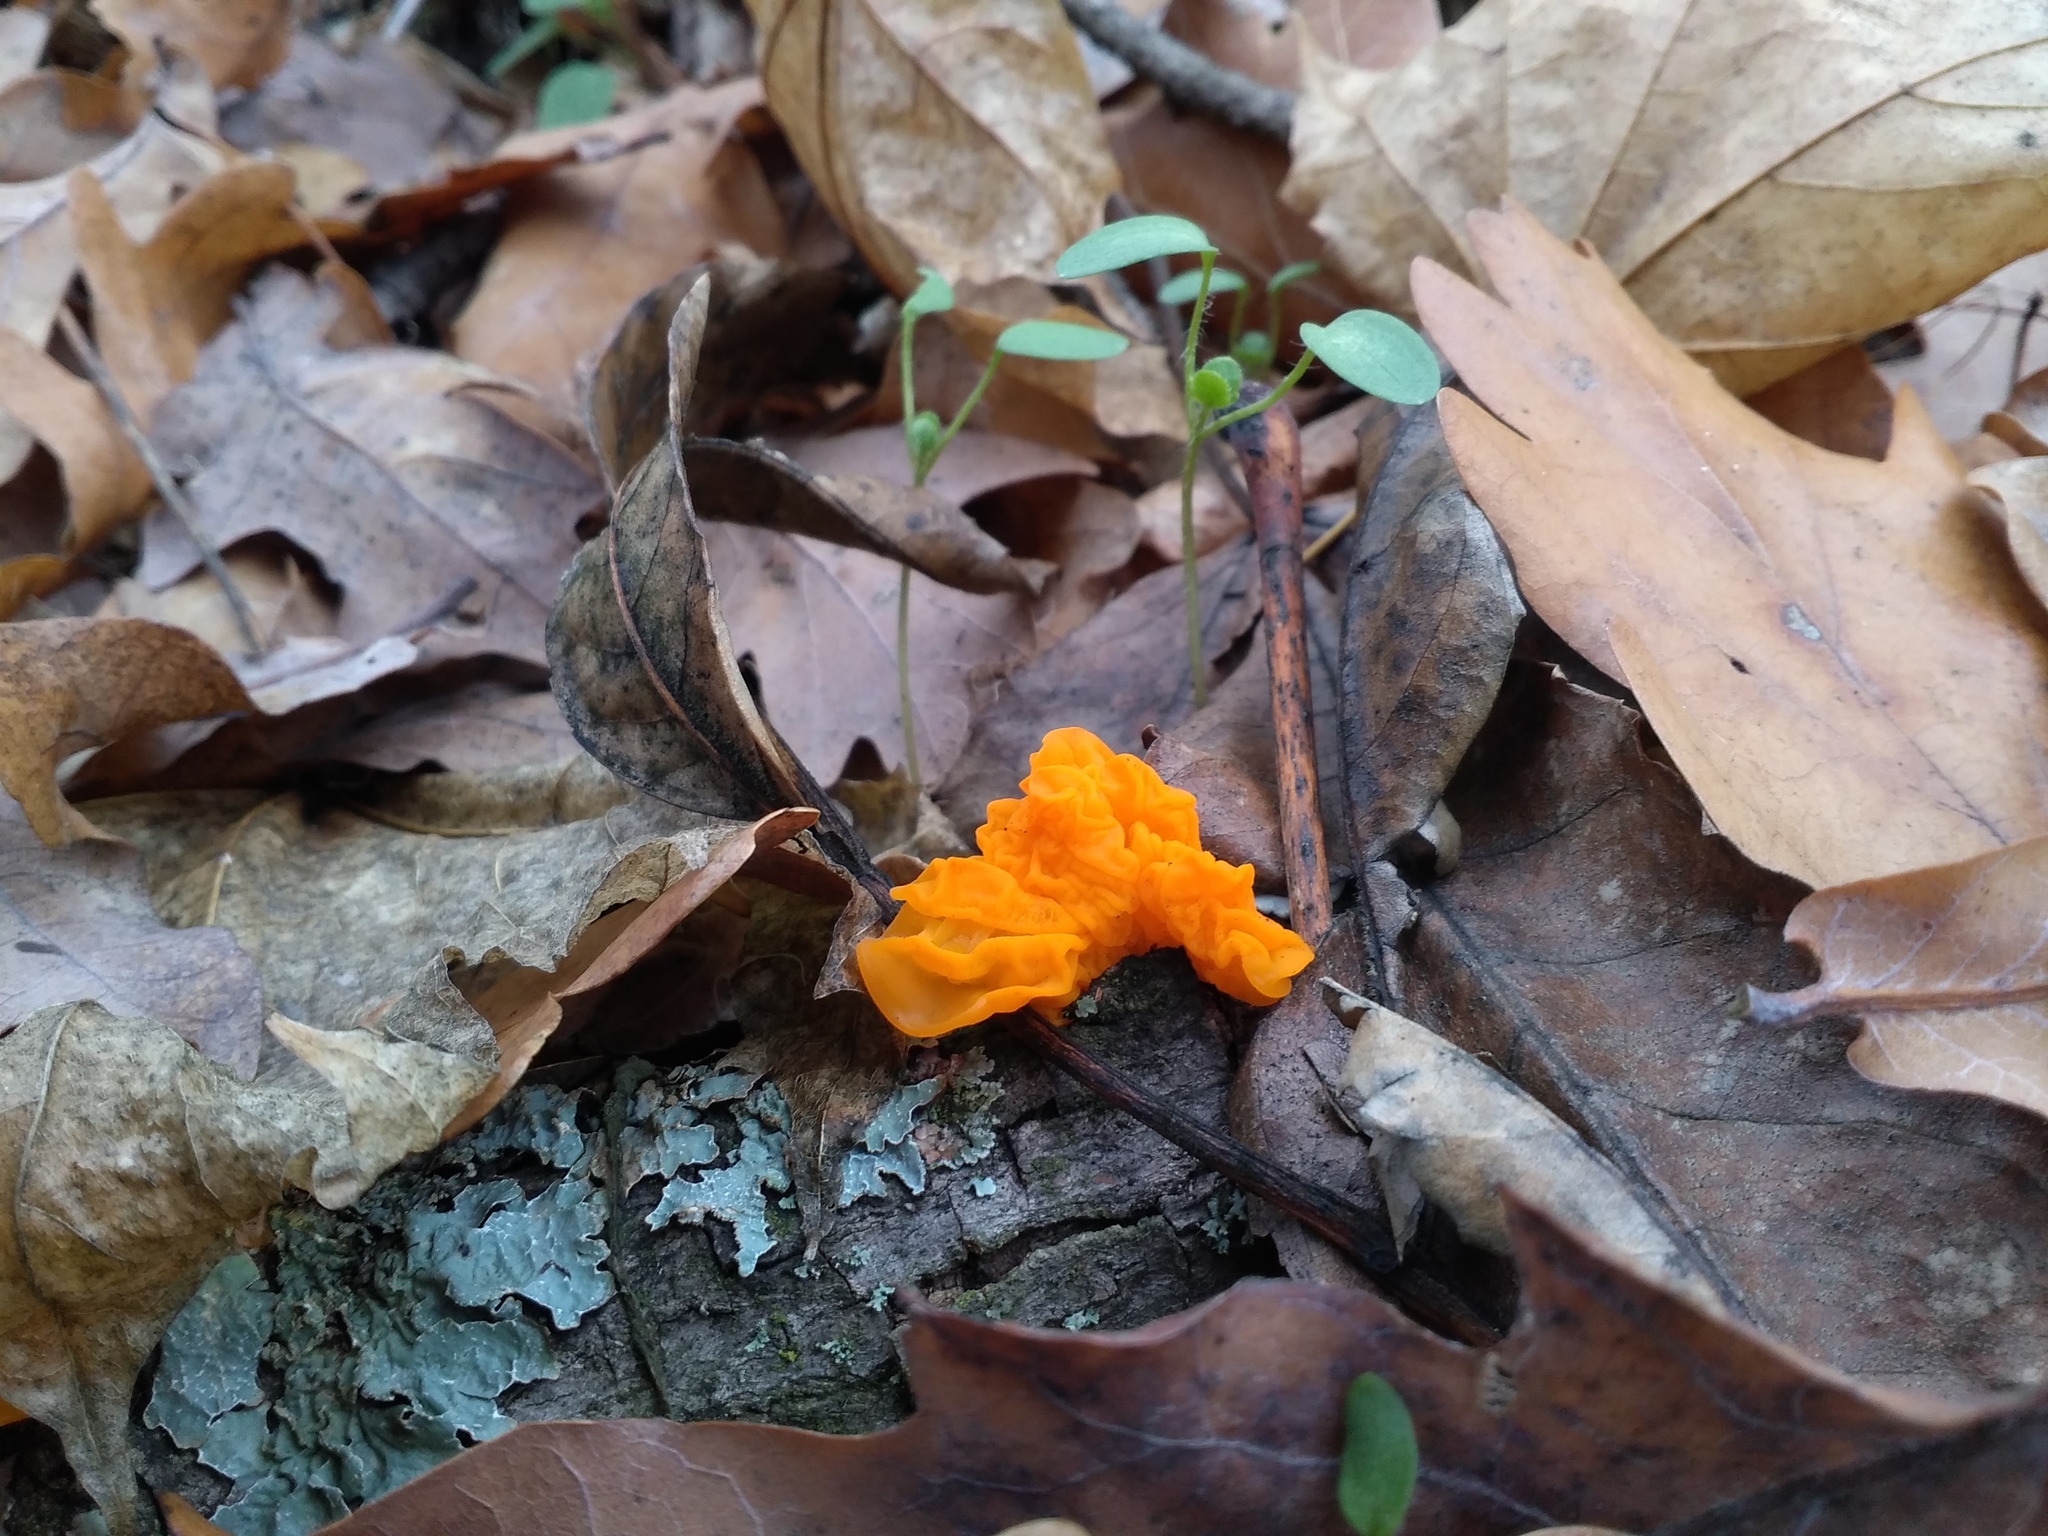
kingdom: Fungi
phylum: Basidiomycota
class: Tremellomycetes
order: Tremellales
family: Tremellaceae
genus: Tremella
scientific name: Tremella mesenterica
